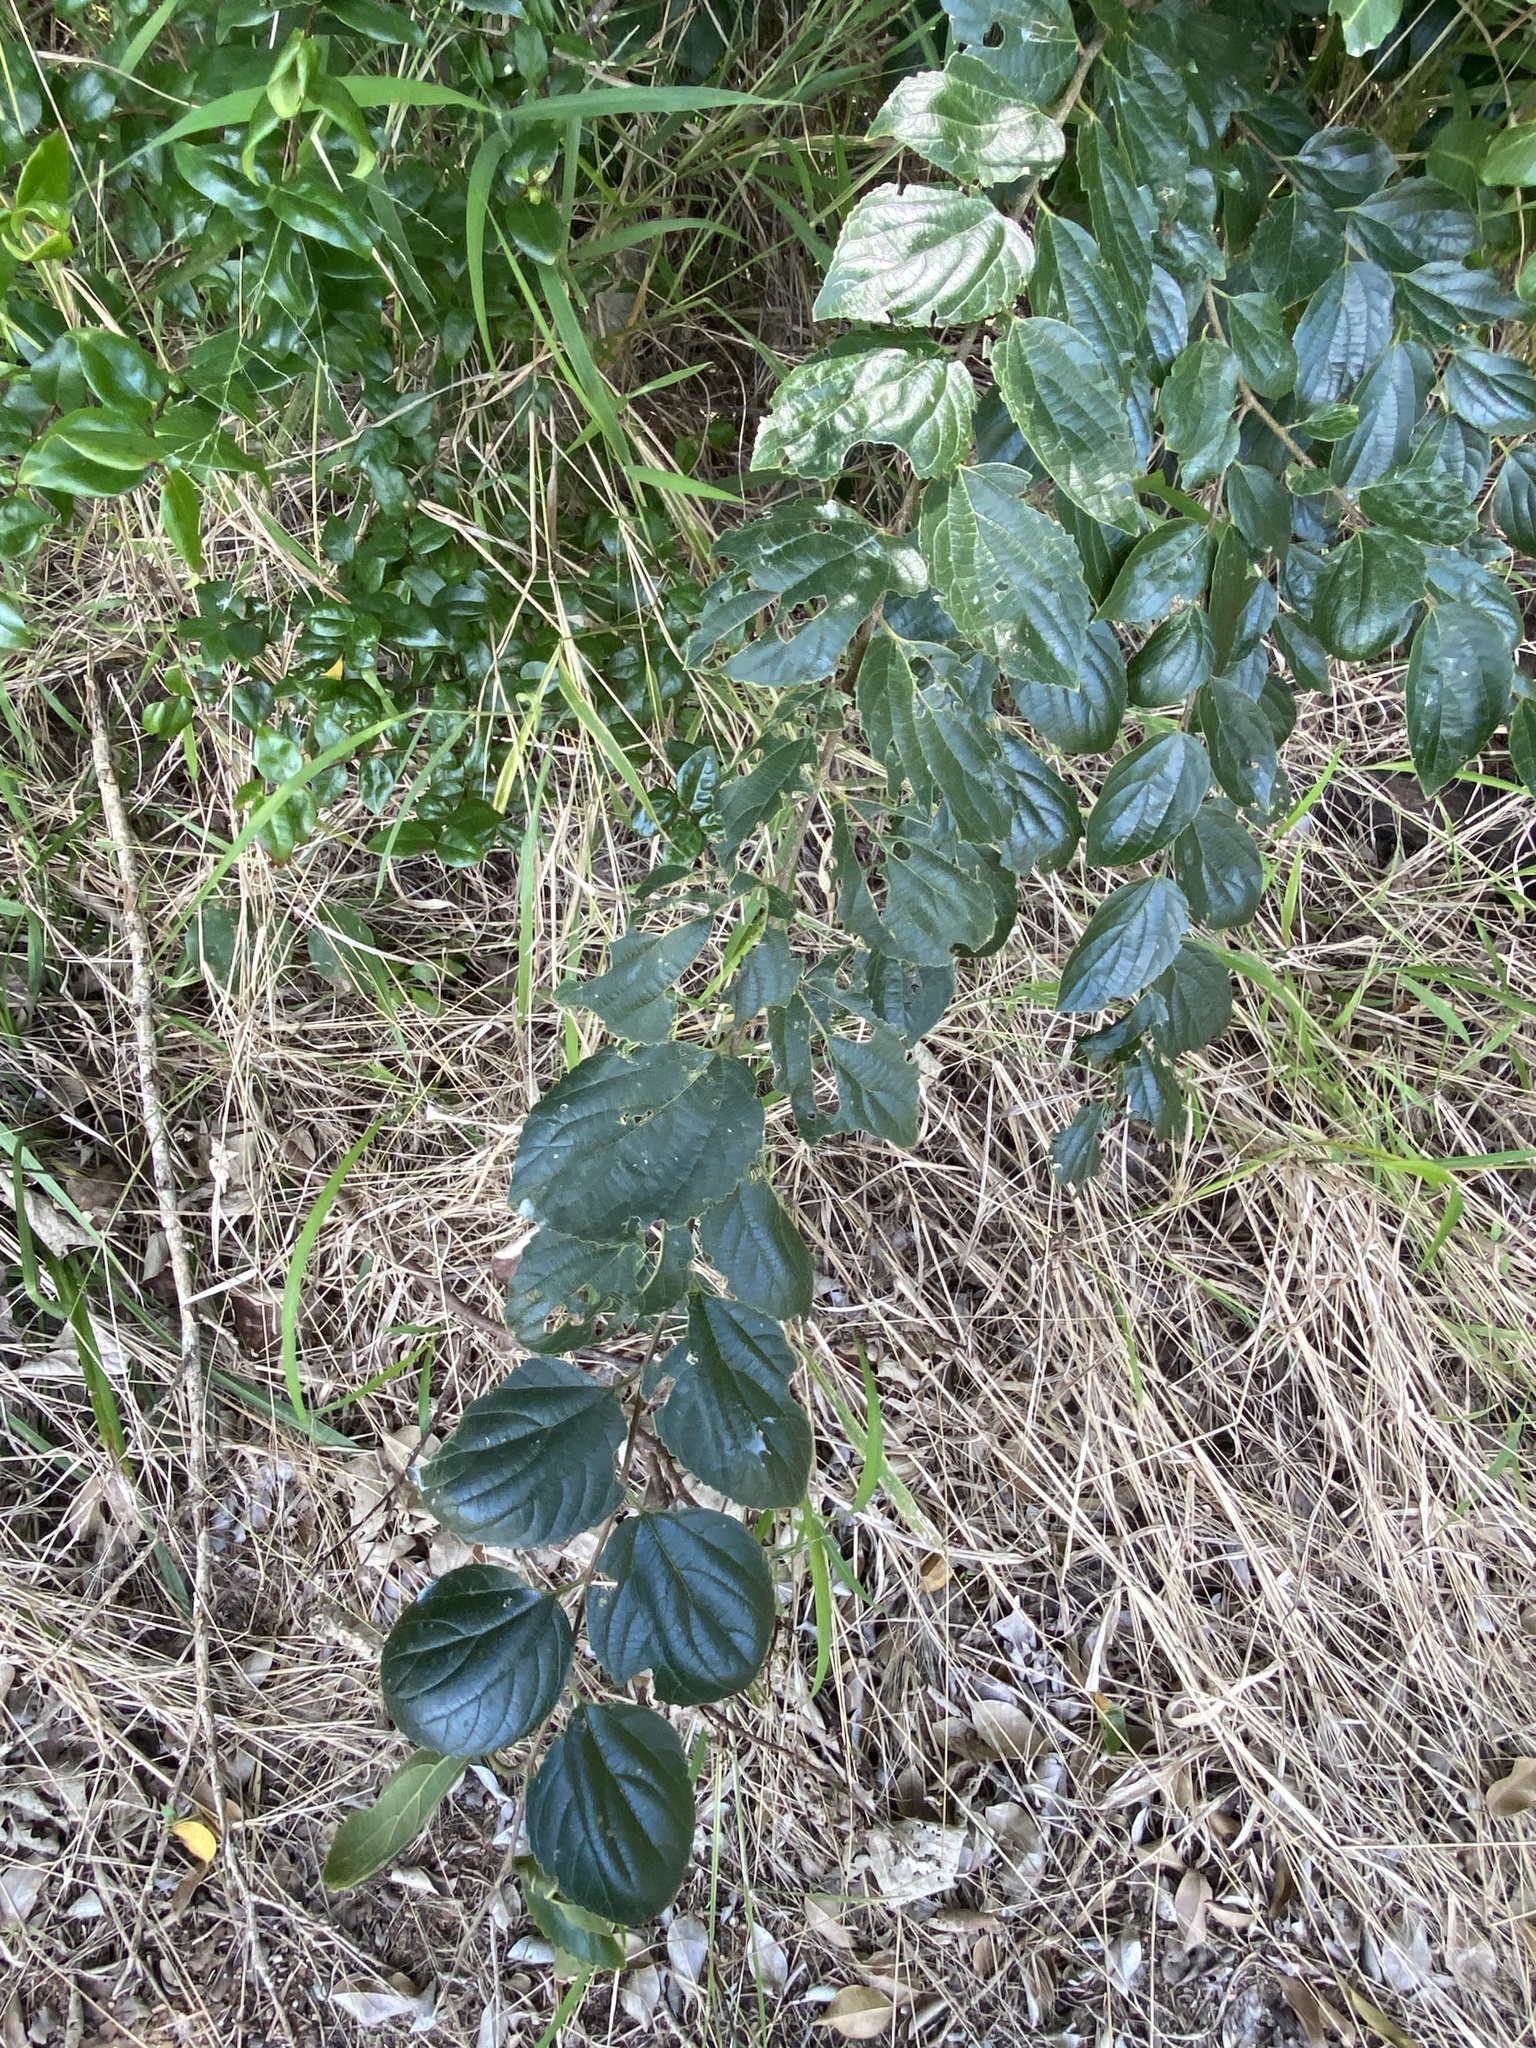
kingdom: Plantae
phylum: Tracheophyta
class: Magnoliopsida
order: Rosales
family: Cannabaceae
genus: Celtis
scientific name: Celtis sinensis
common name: Chinese hackberry
